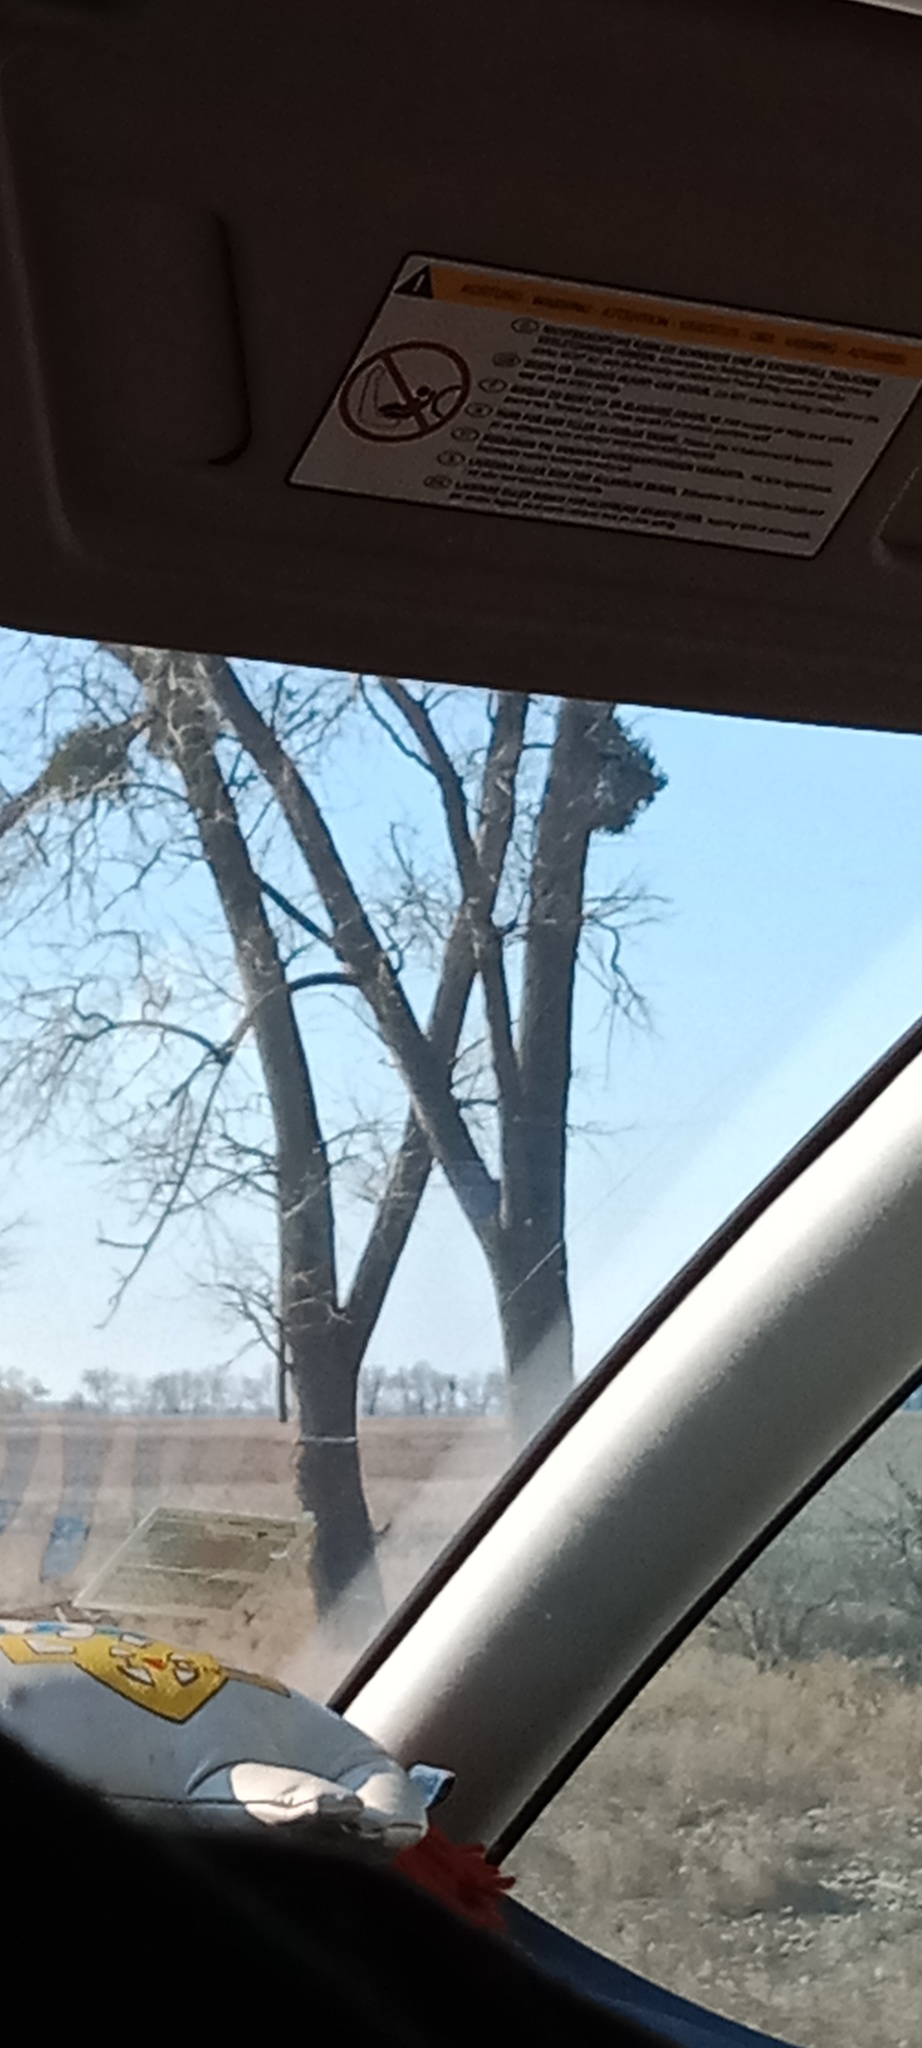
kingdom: Plantae
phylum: Tracheophyta
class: Magnoliopsida
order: Santalales
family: Viscaceae
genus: Viscum
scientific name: Viscum album
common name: Mistletoe
